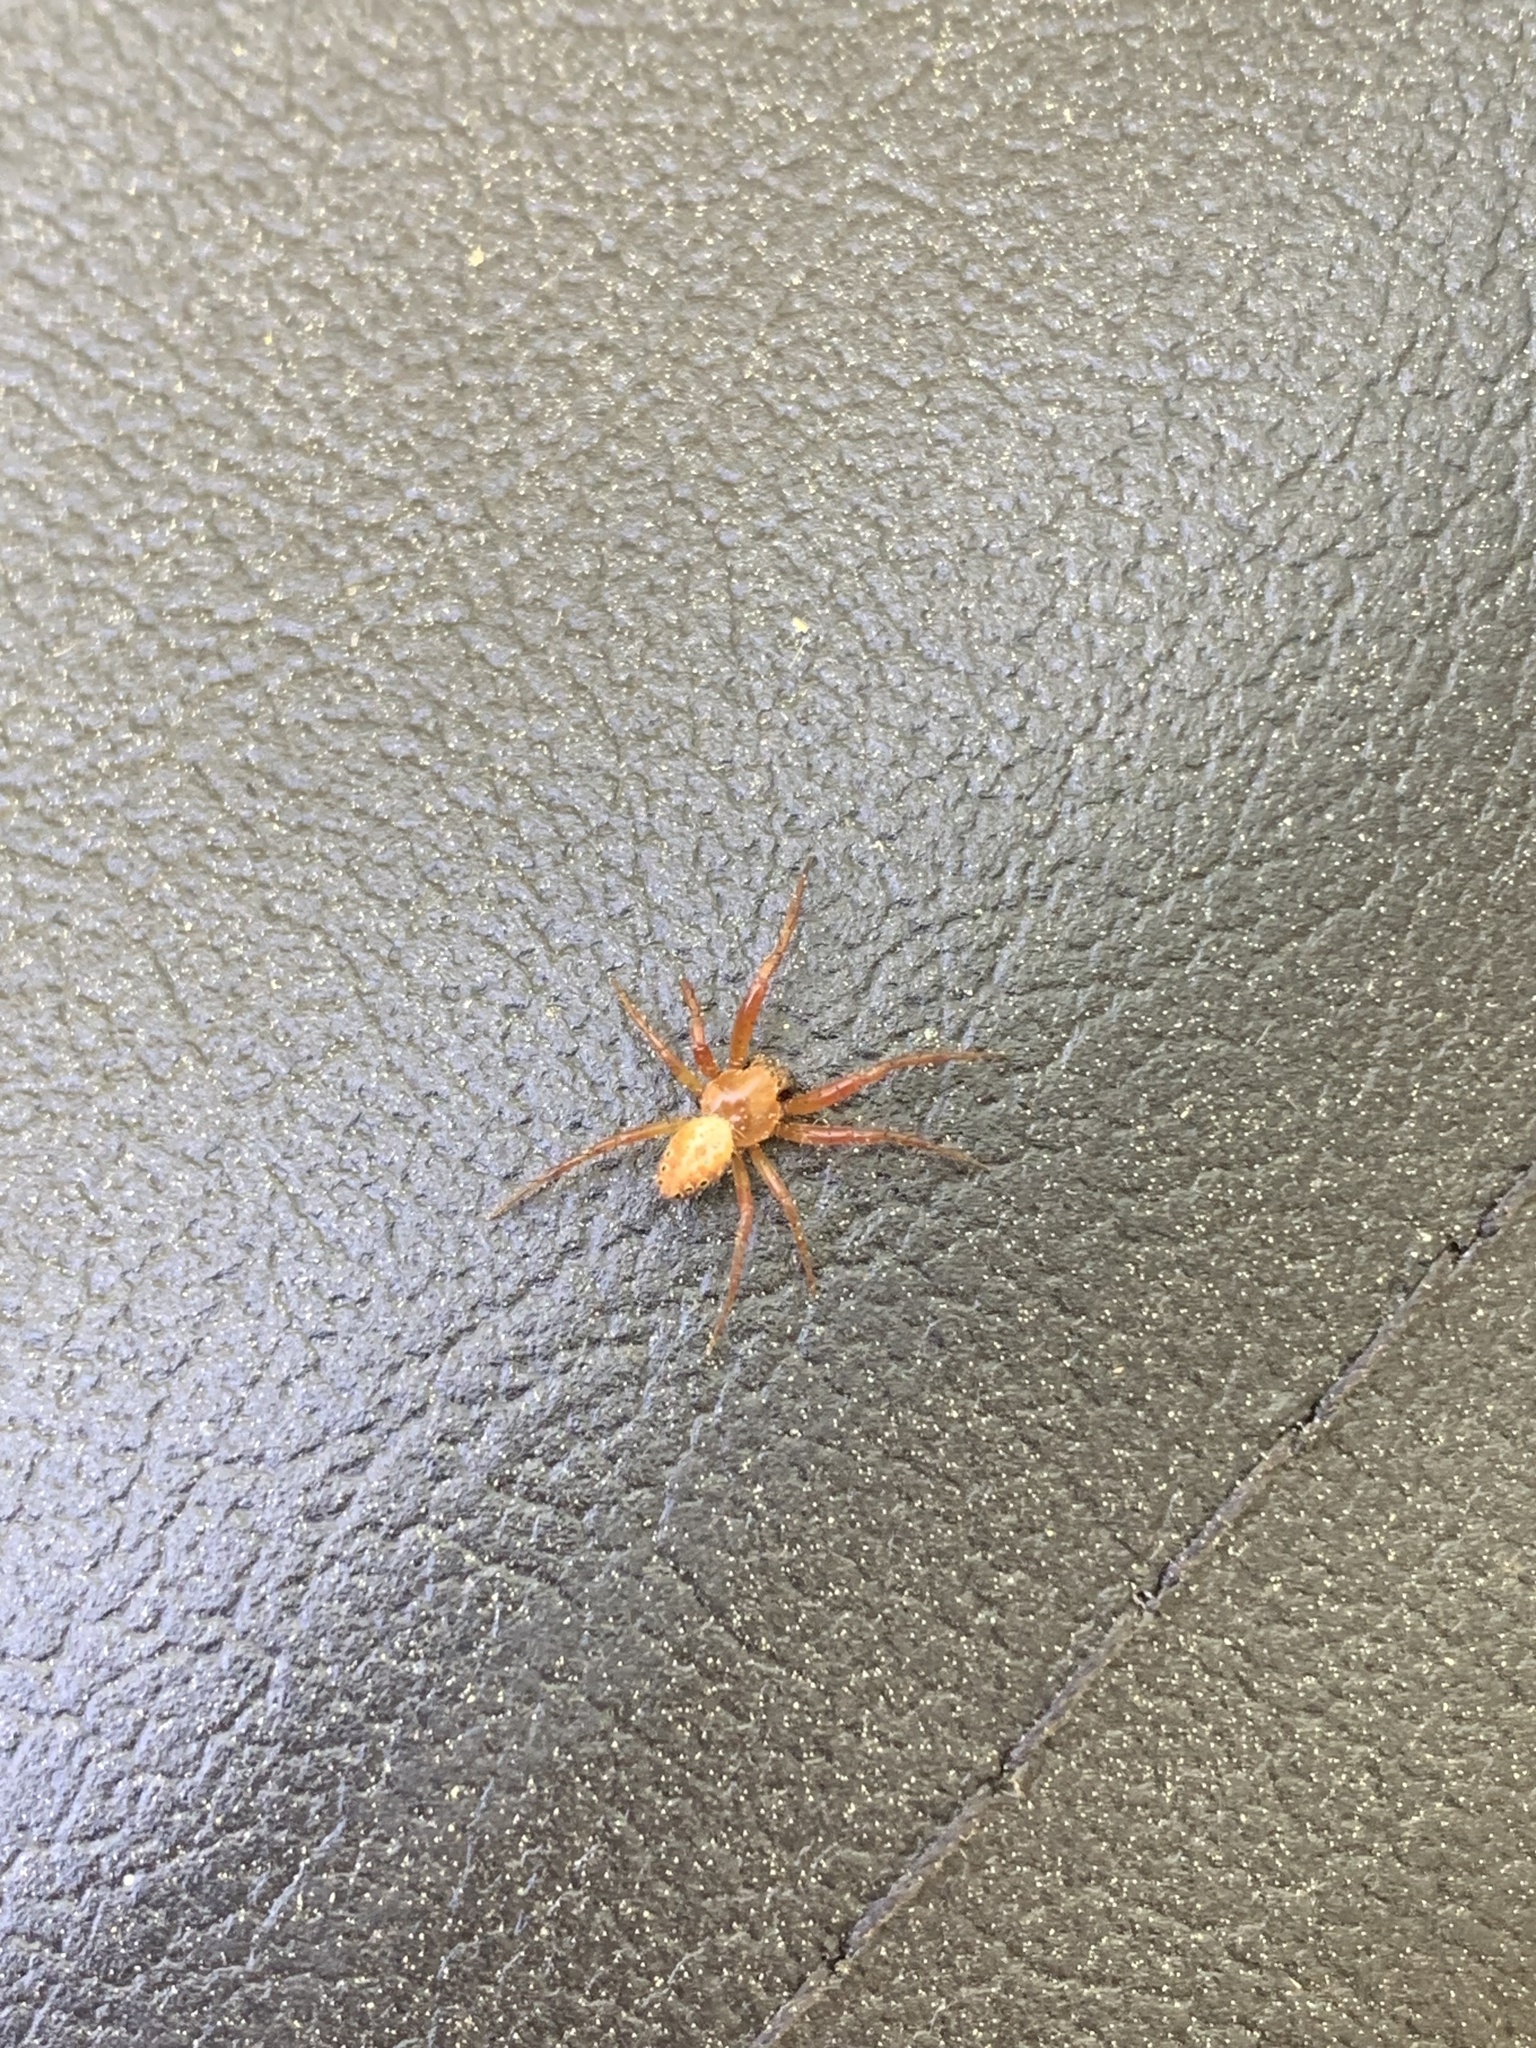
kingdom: Animalia
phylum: Arthropoda
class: Arachnida
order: Araneae
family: Araneidae
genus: Araniella
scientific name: Araniella displicata
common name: Sixspotted orb weaver
